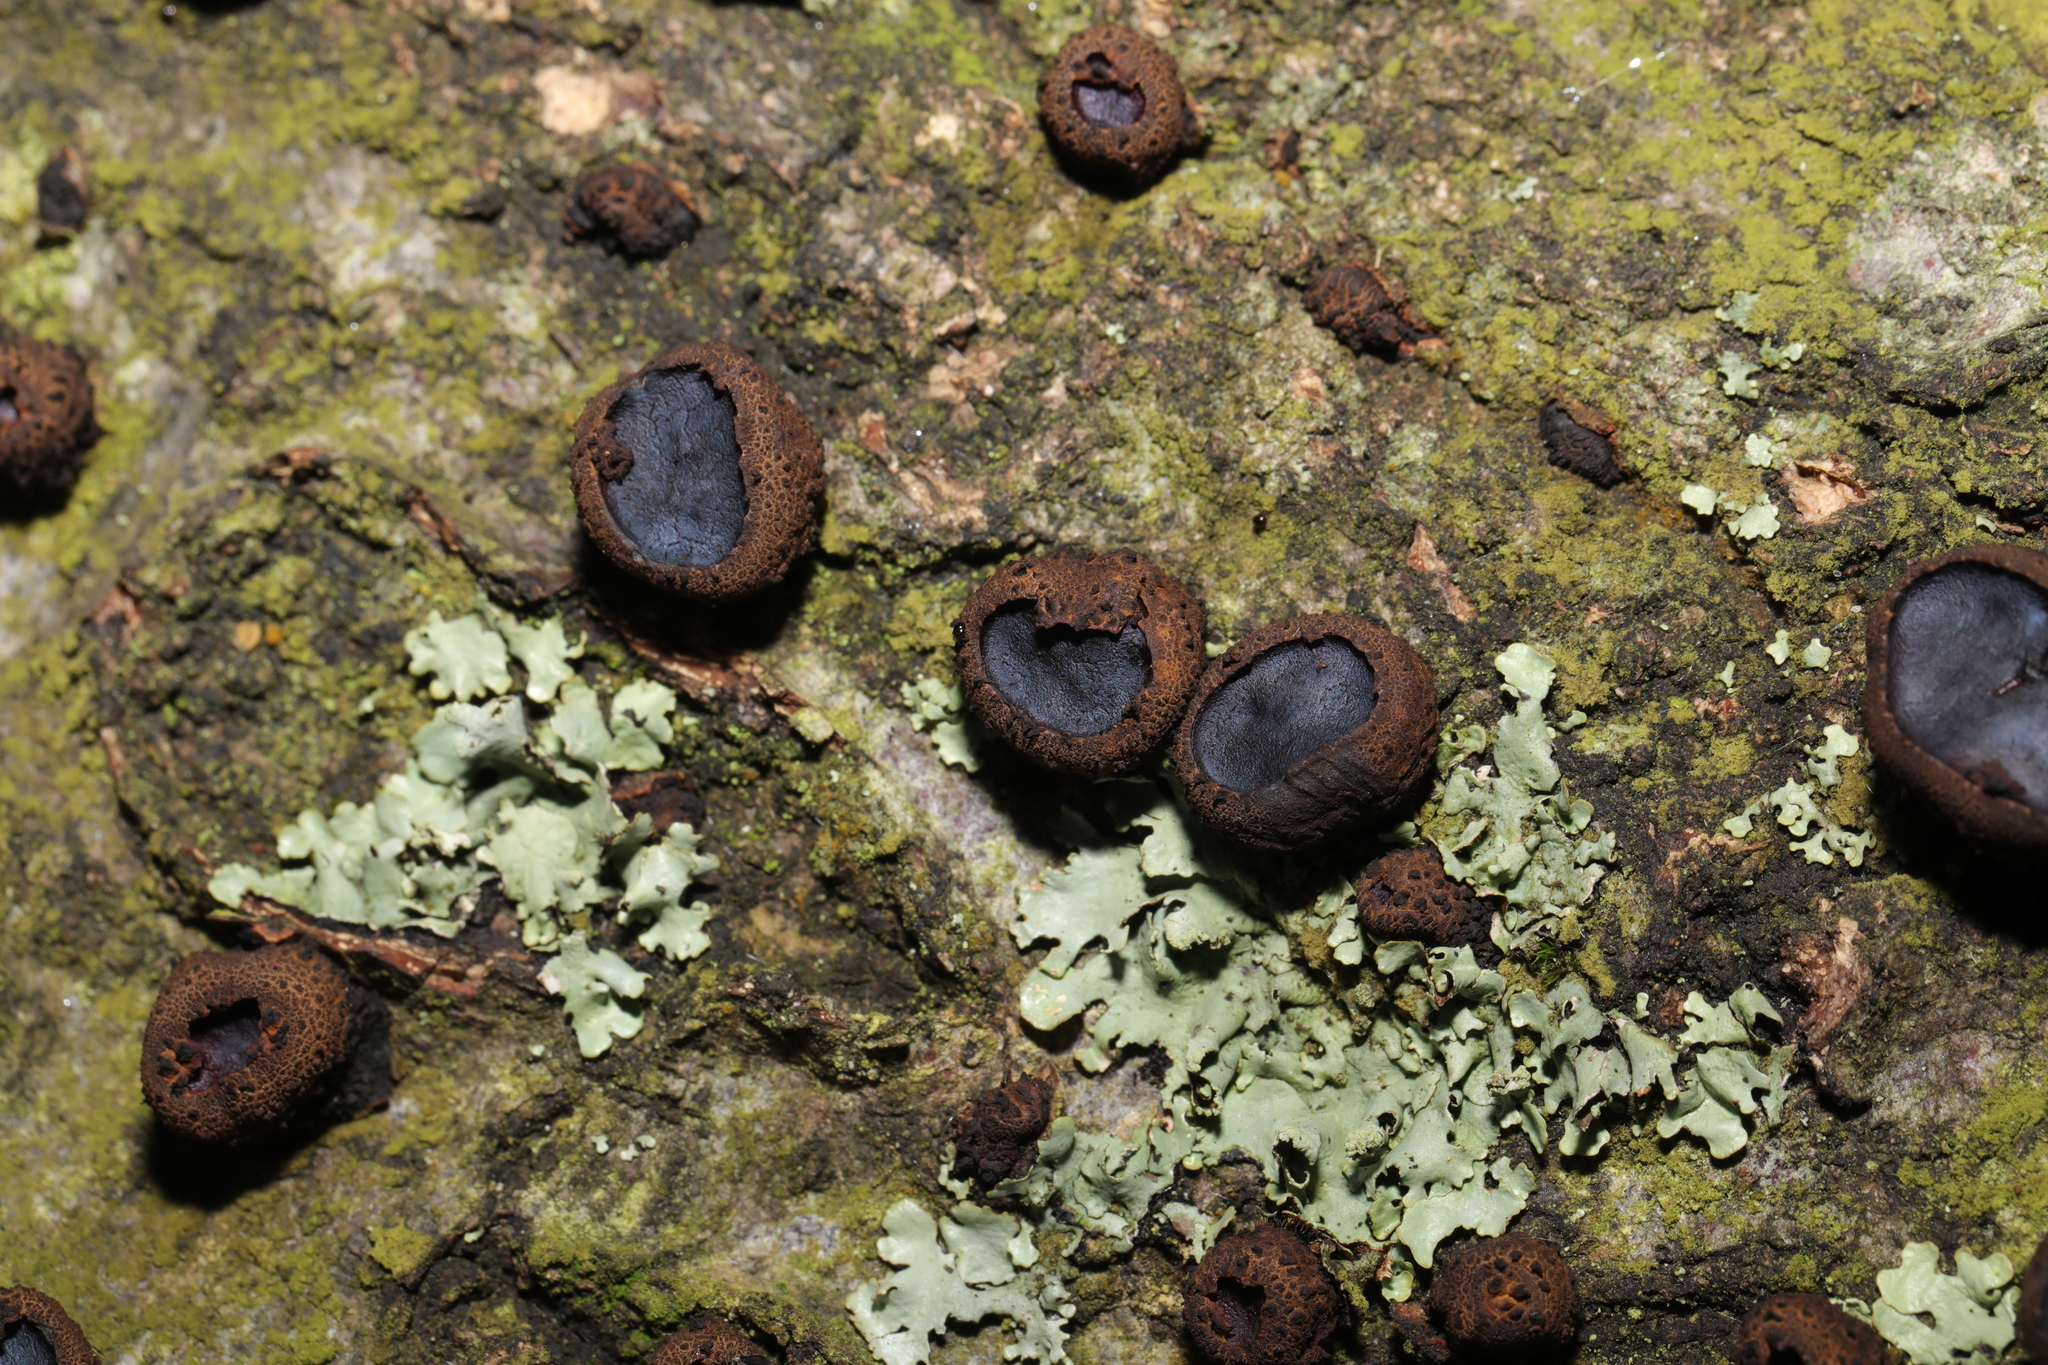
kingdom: Fungi
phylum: Ascomycota
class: Leotiomycetes
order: Phacidiales
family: Phacidiaceae
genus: Bulgaria
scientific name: Bulgaria inquinans
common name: Black bulgar
